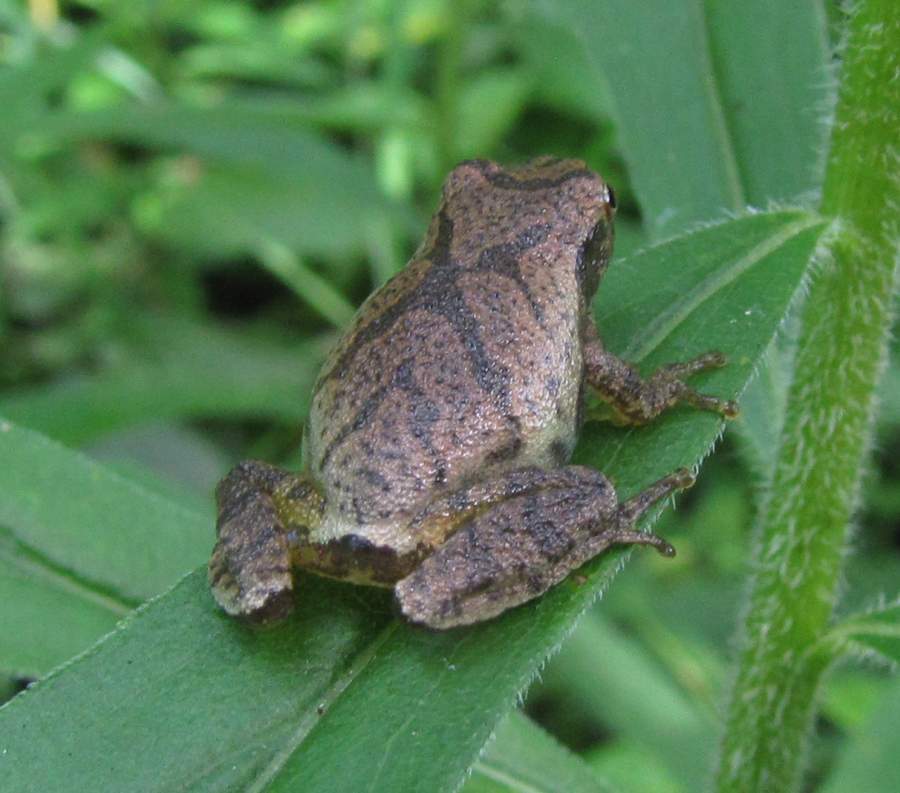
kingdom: Animalia
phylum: Chordata
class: Amphibia
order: Anura
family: Hylidae
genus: Pseudacris
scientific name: Pseudacris crucifer
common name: Spring peeper
